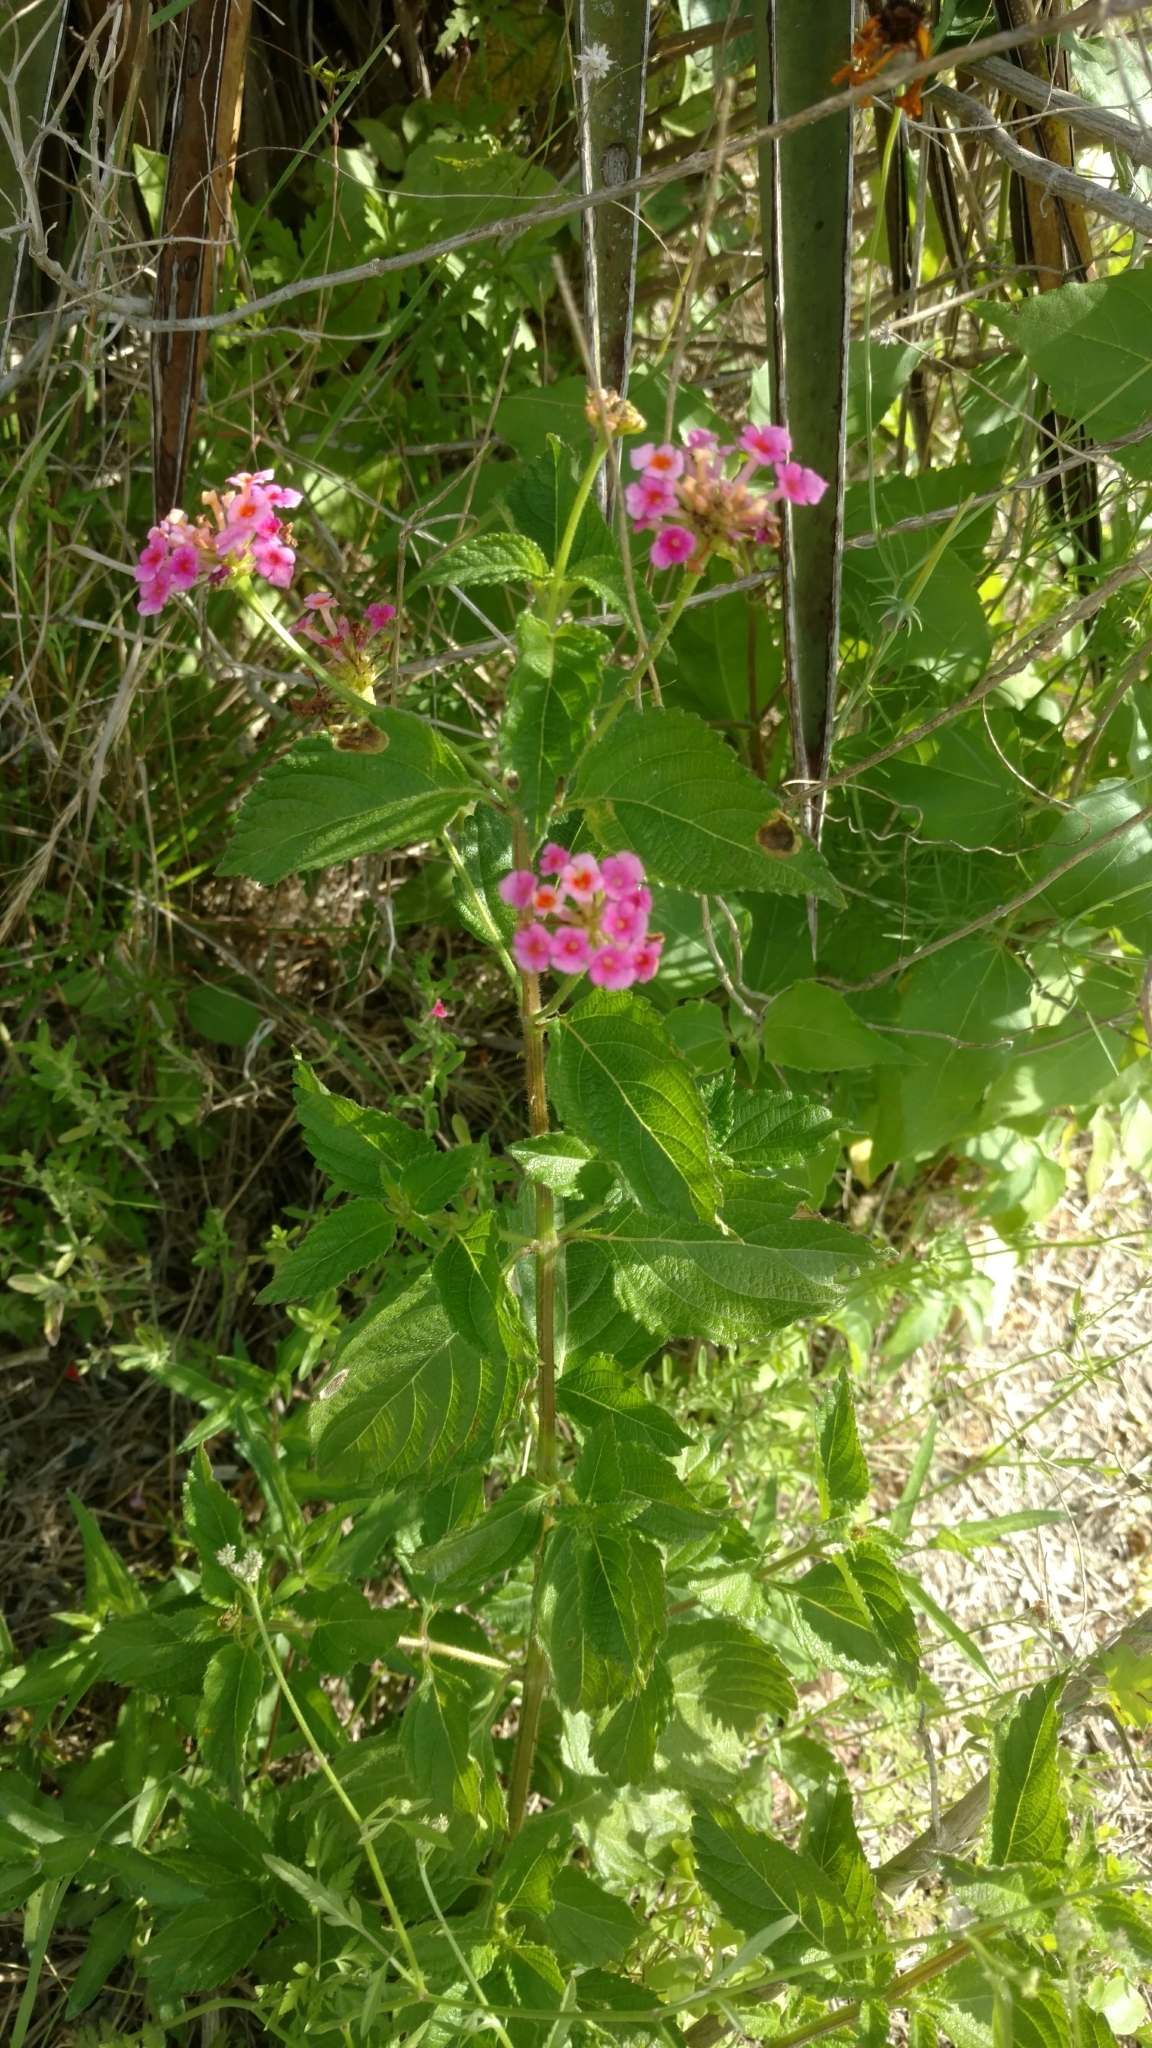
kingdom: Plantae
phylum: Tracheophyta
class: Magnoliopsida
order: Lamiales
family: Verbenaceae
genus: Lantana
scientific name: Lantana strigocamara
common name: Lantana
